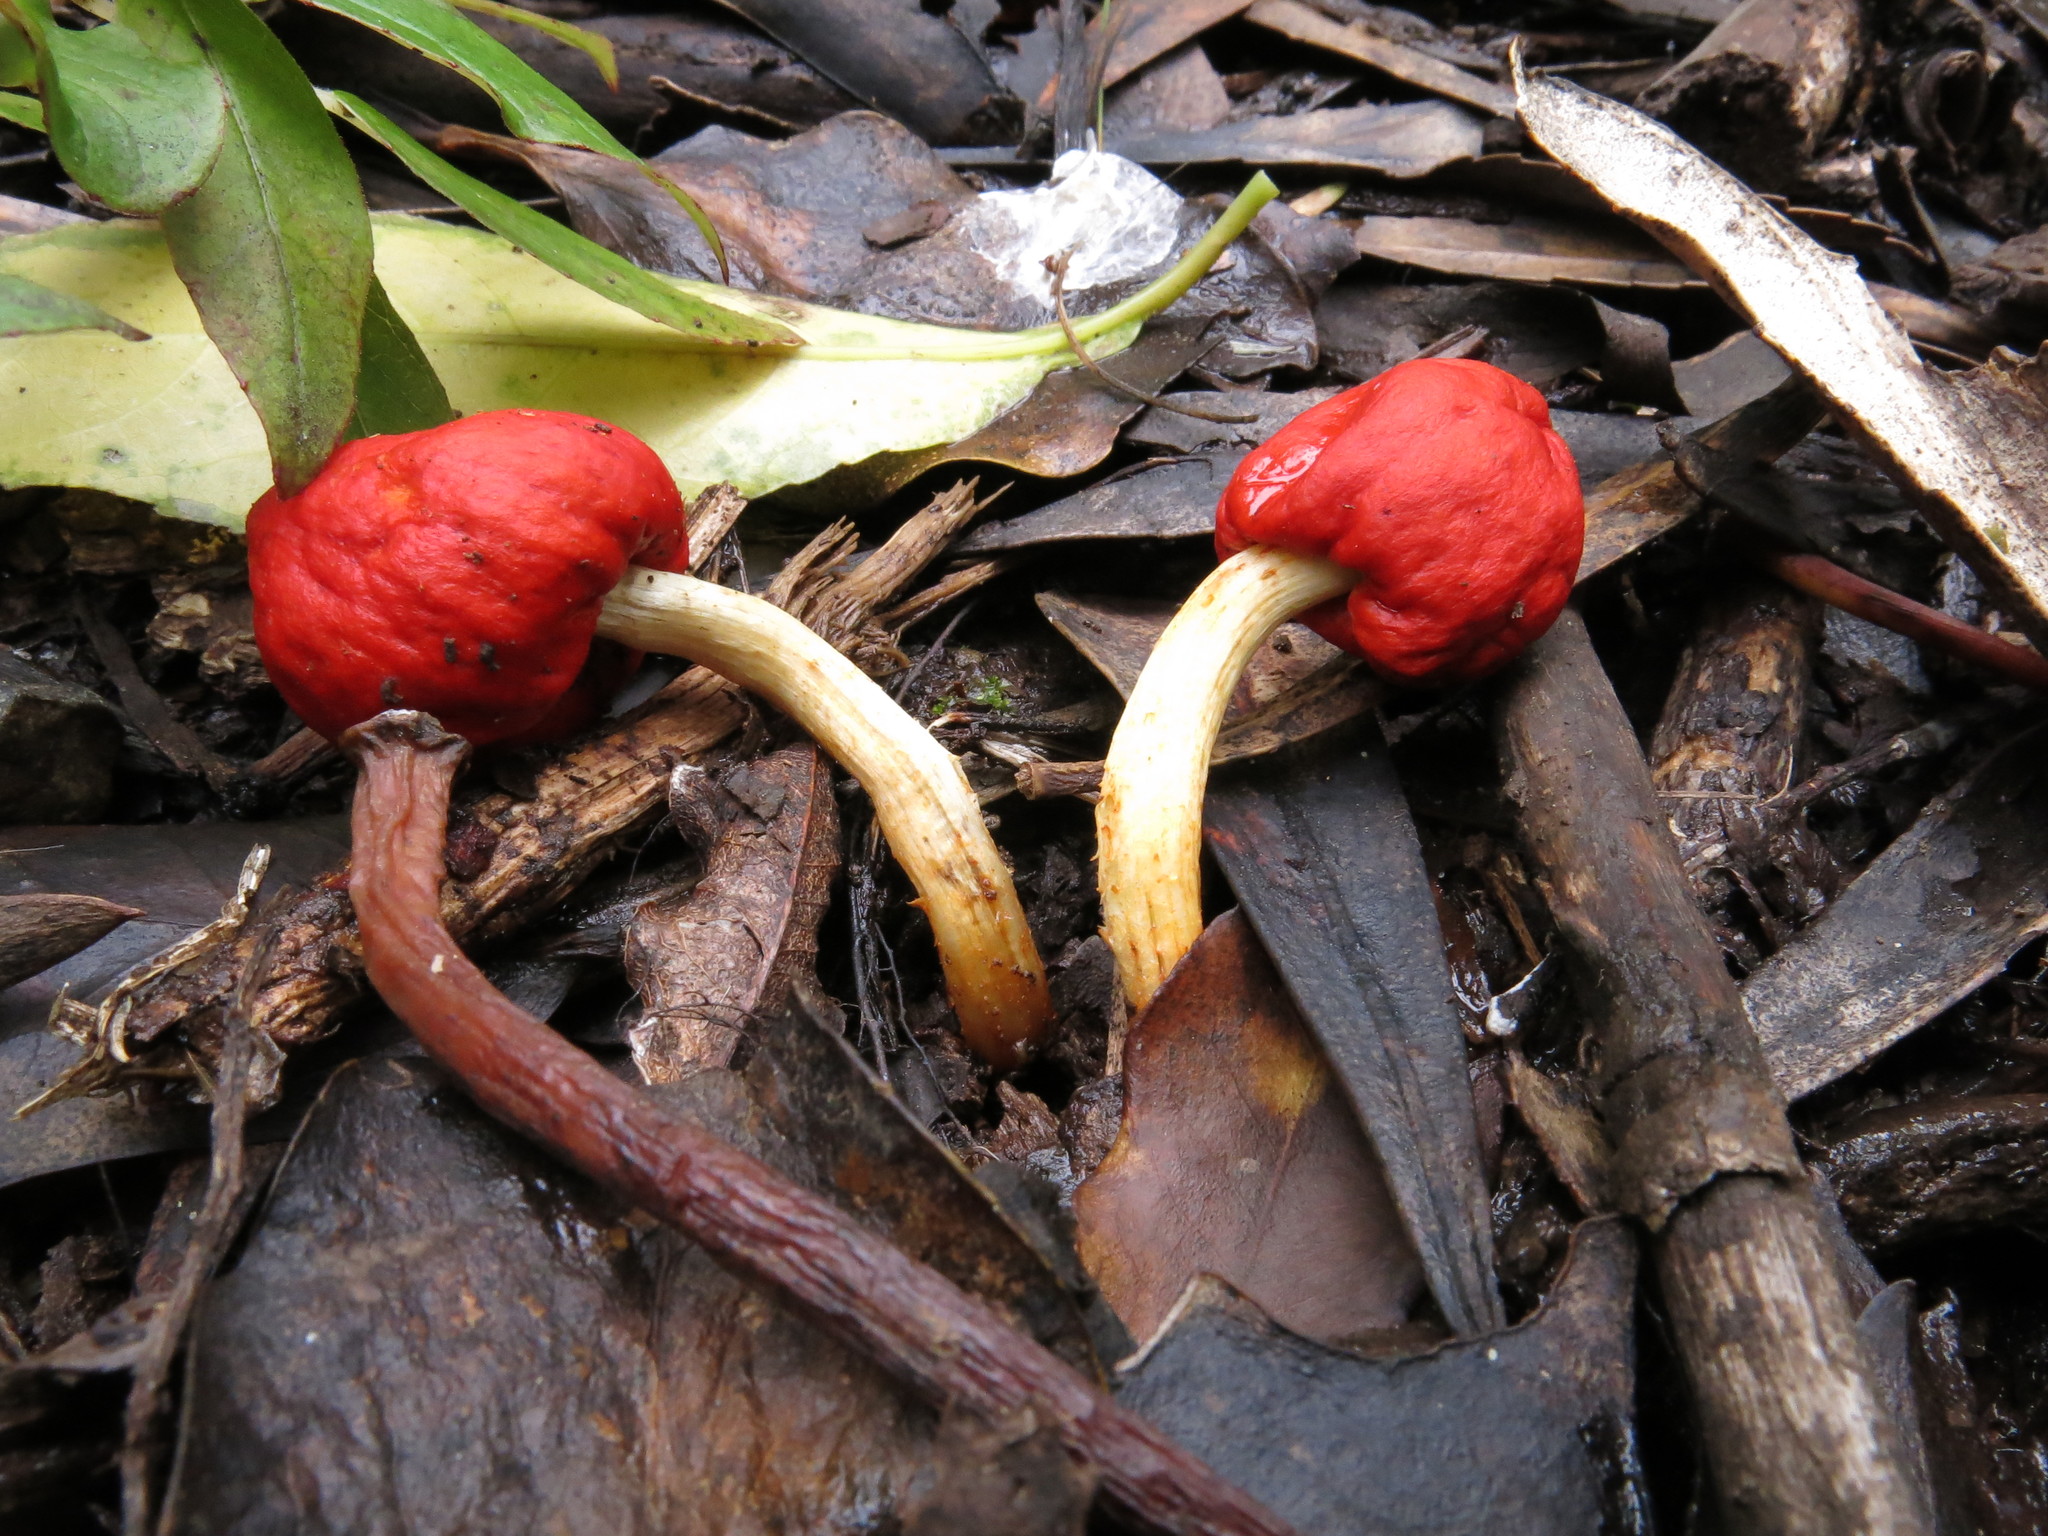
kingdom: Fungi
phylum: Basidiomycota
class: Agaricomycetes
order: Agaricales
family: Strophariaceae
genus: Leratiomyces
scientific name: Leratiomyces erythrocephalus
